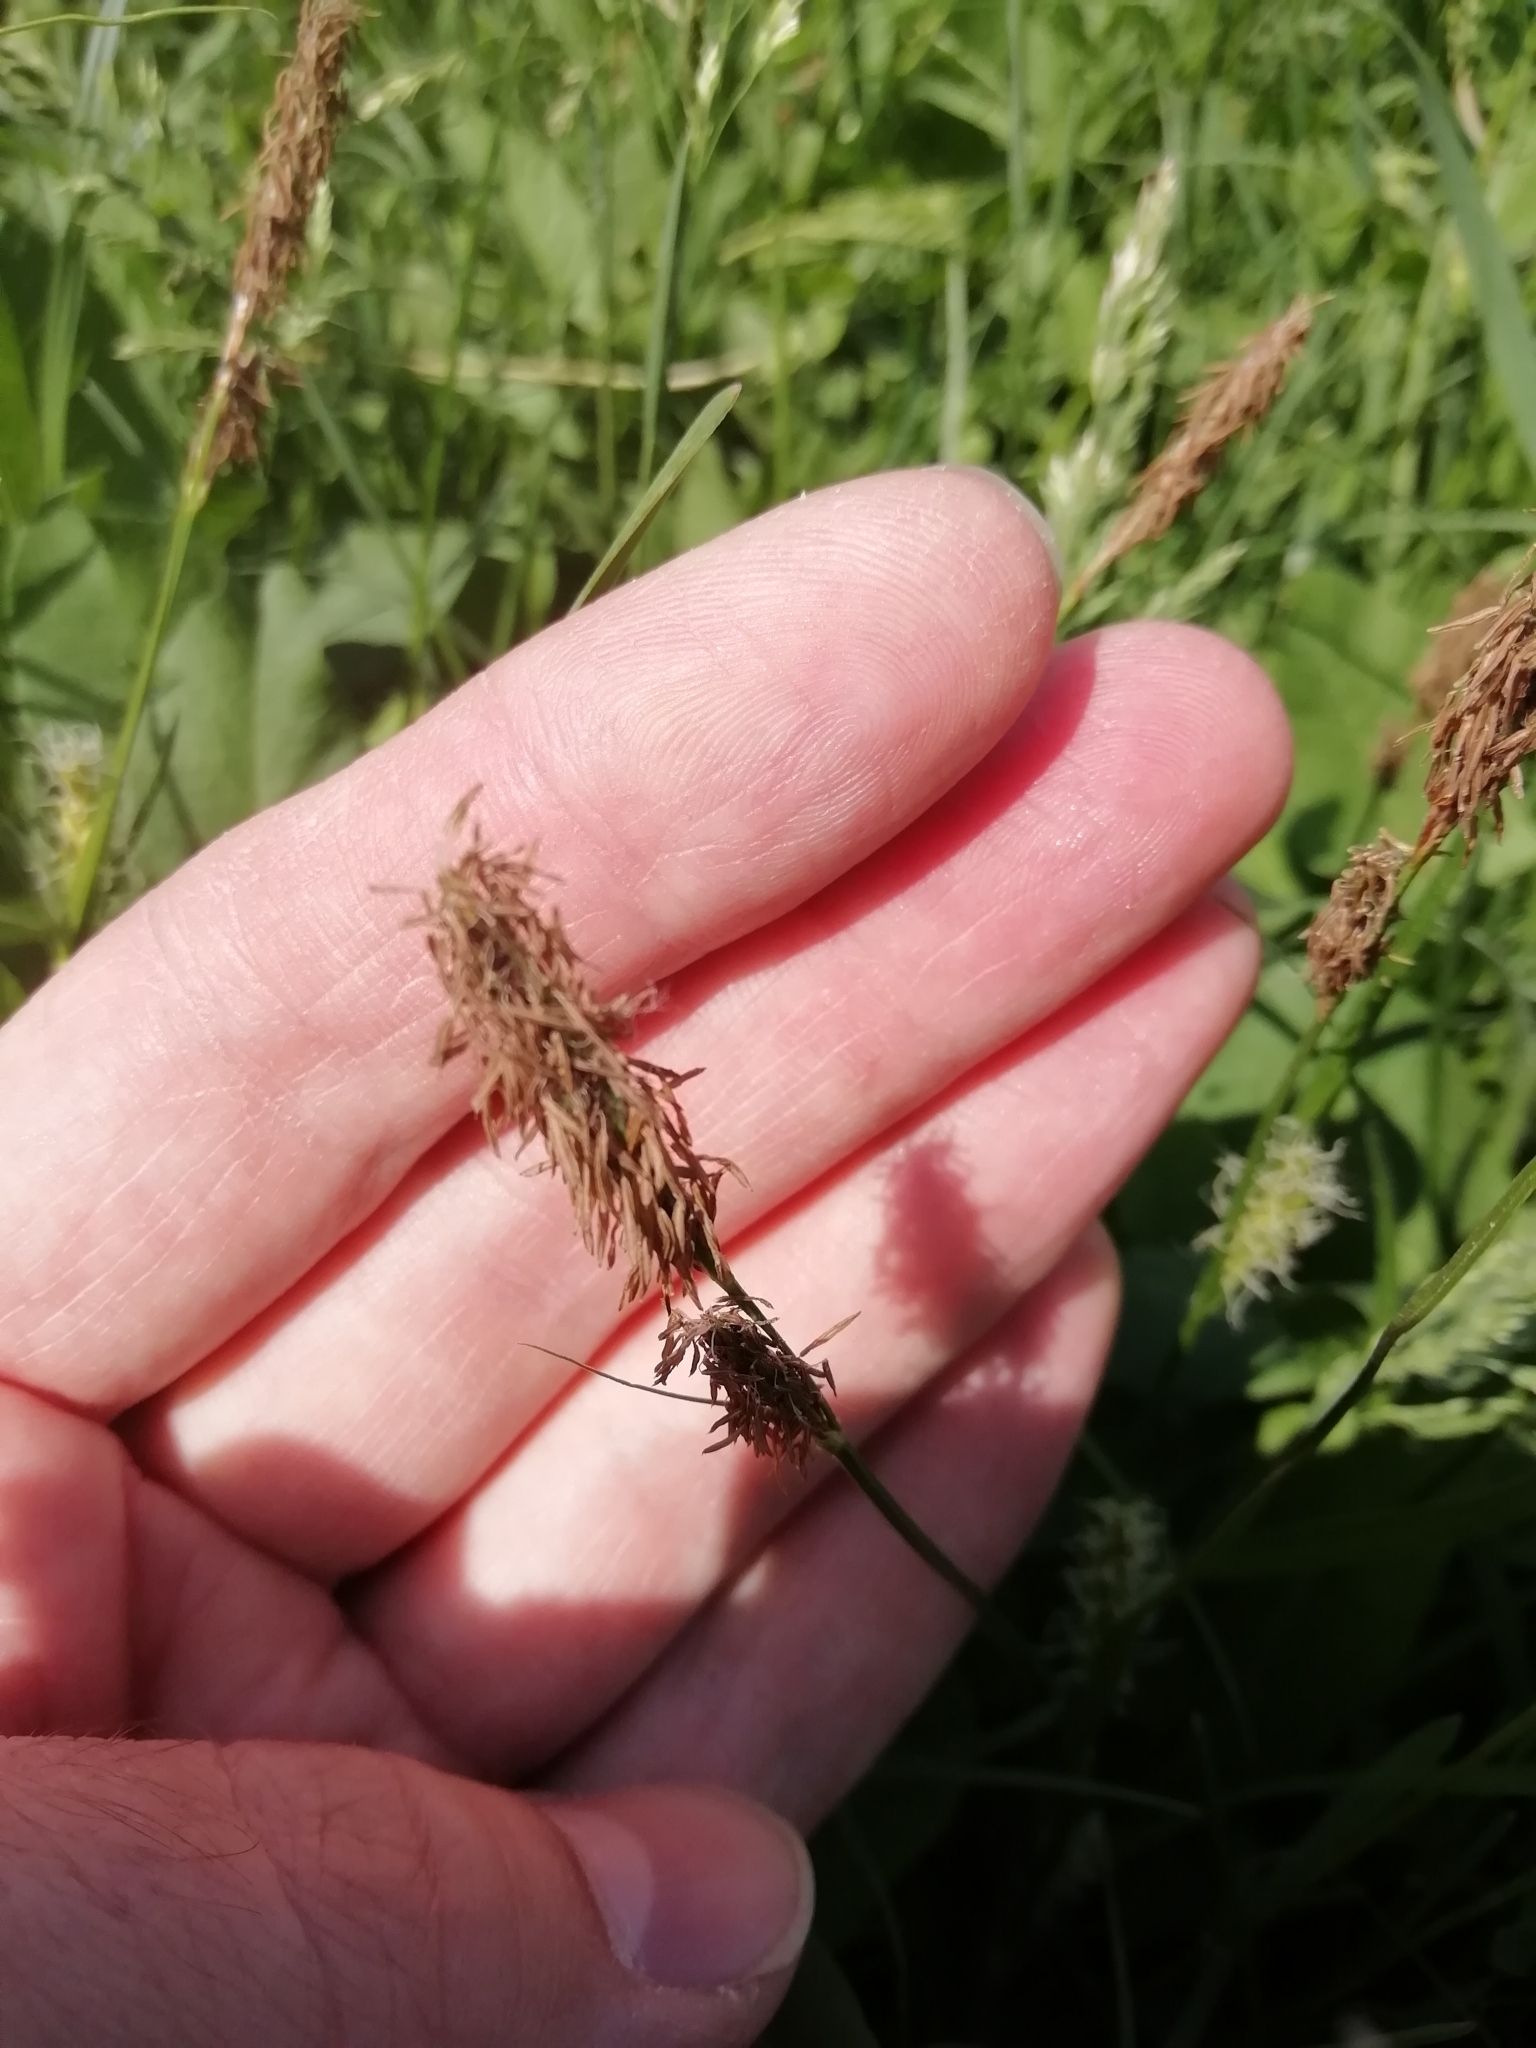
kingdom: Plantae
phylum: Tracheophyta
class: Liliopsida
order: Poales
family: Cyperaceae
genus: Carex
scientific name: Carex hirta
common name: Hairy sedge
